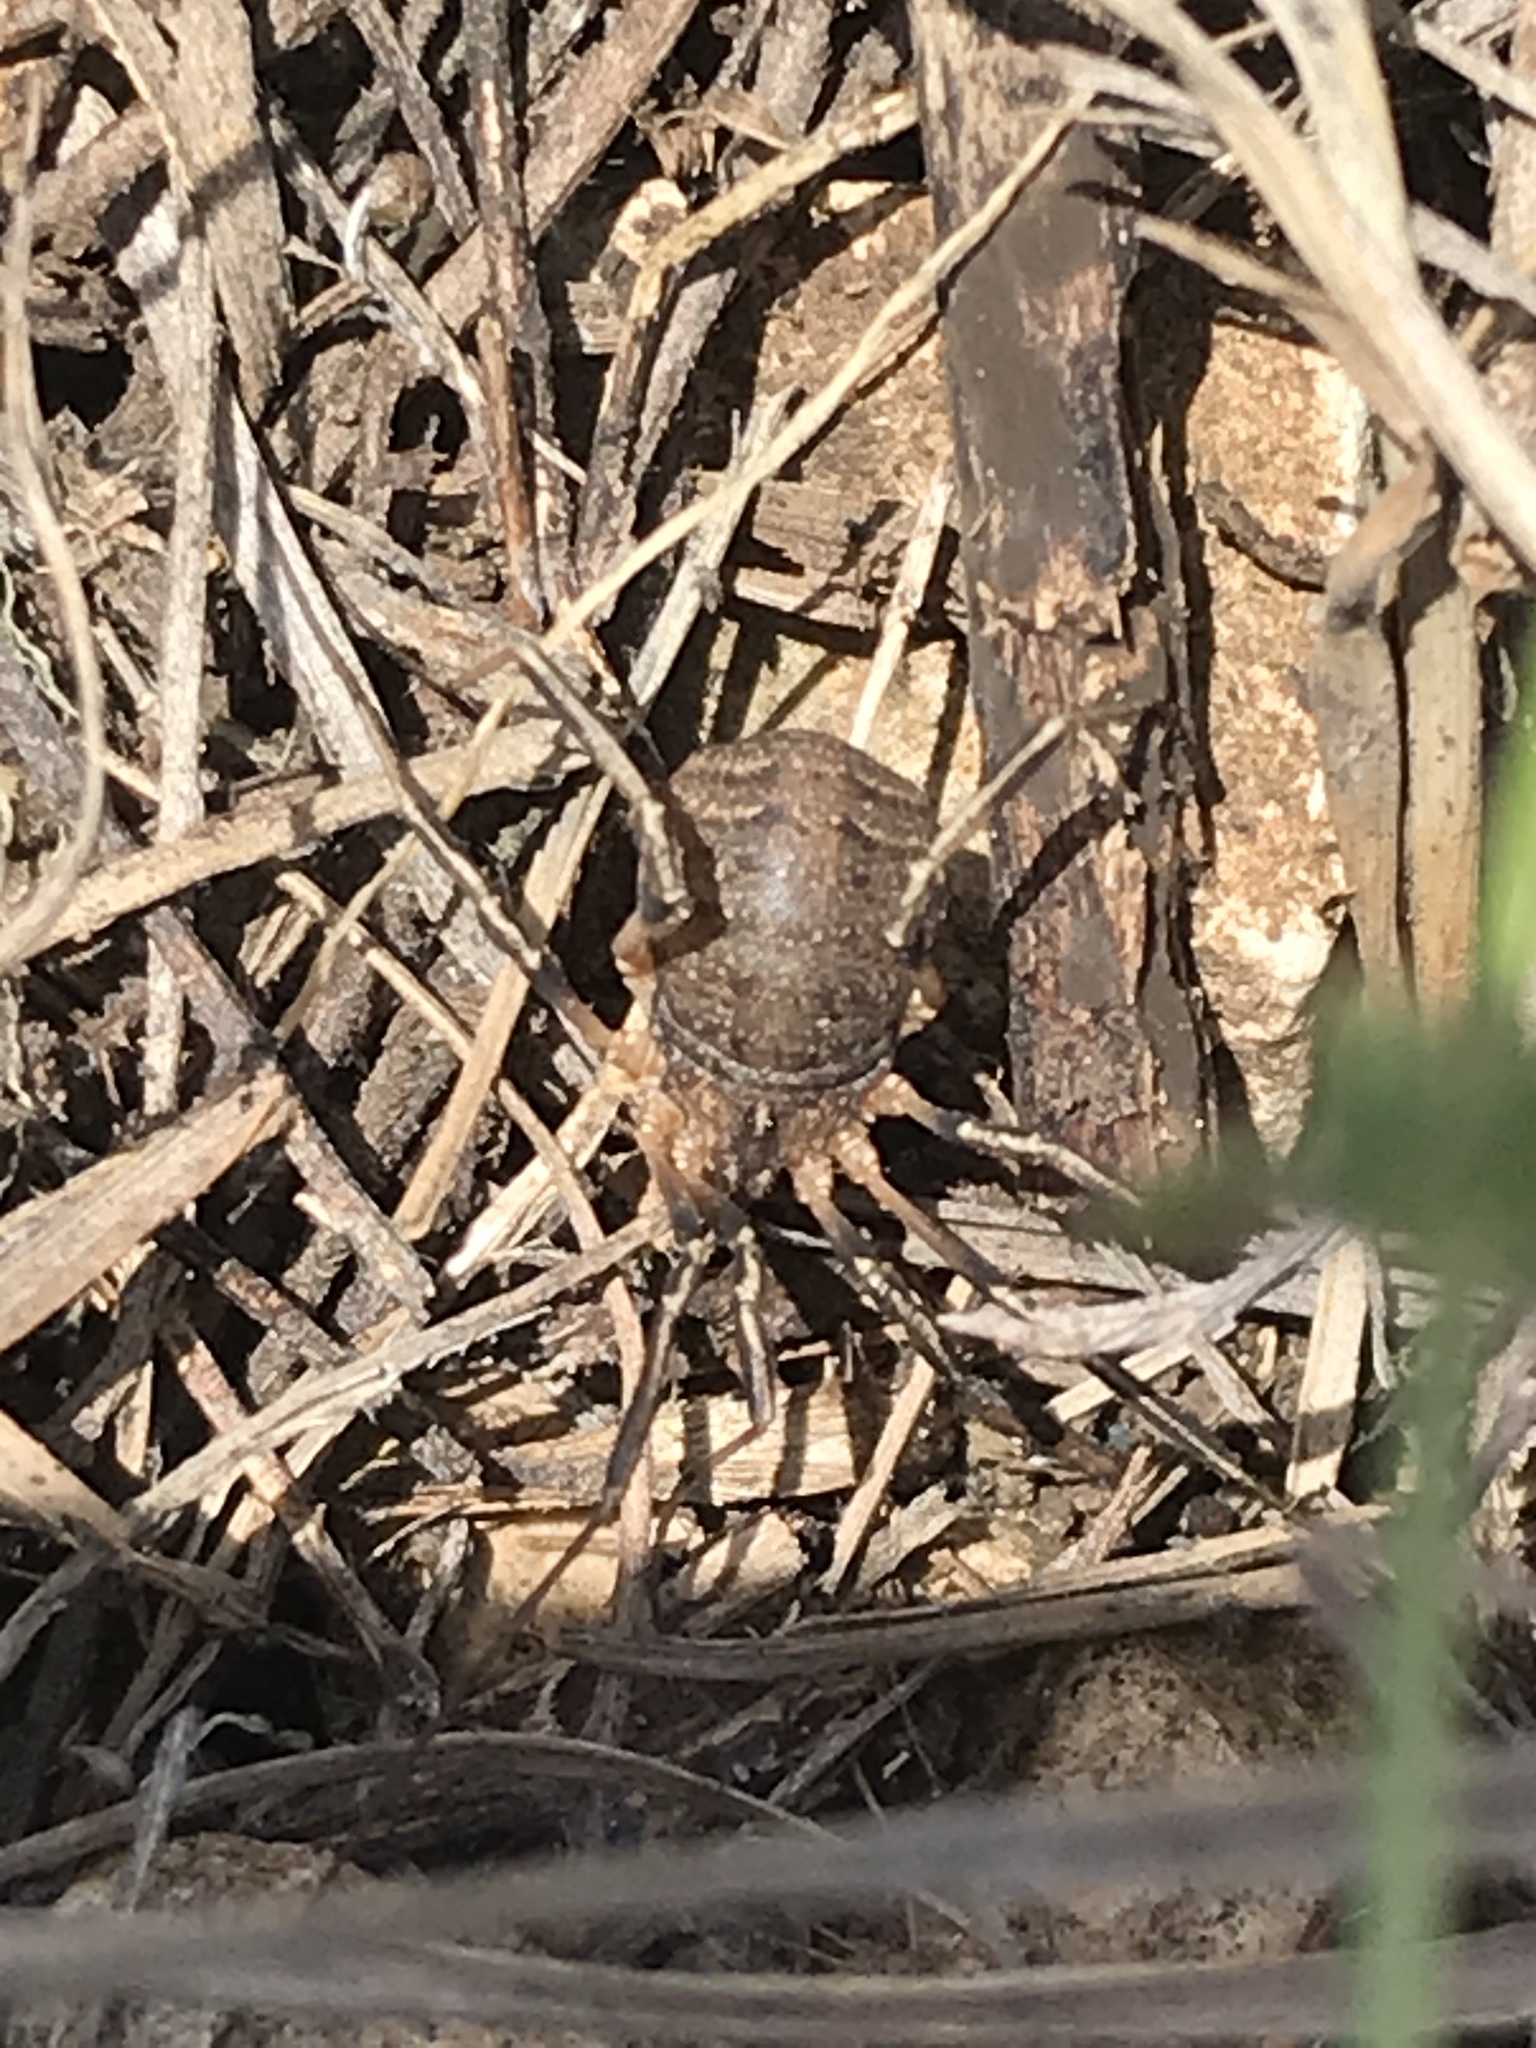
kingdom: Animalia
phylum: Arthropoda
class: Arachnida
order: Opiliones
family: Sclerosomatidae
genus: Eumesosoma
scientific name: Eumesosoma roeweri
